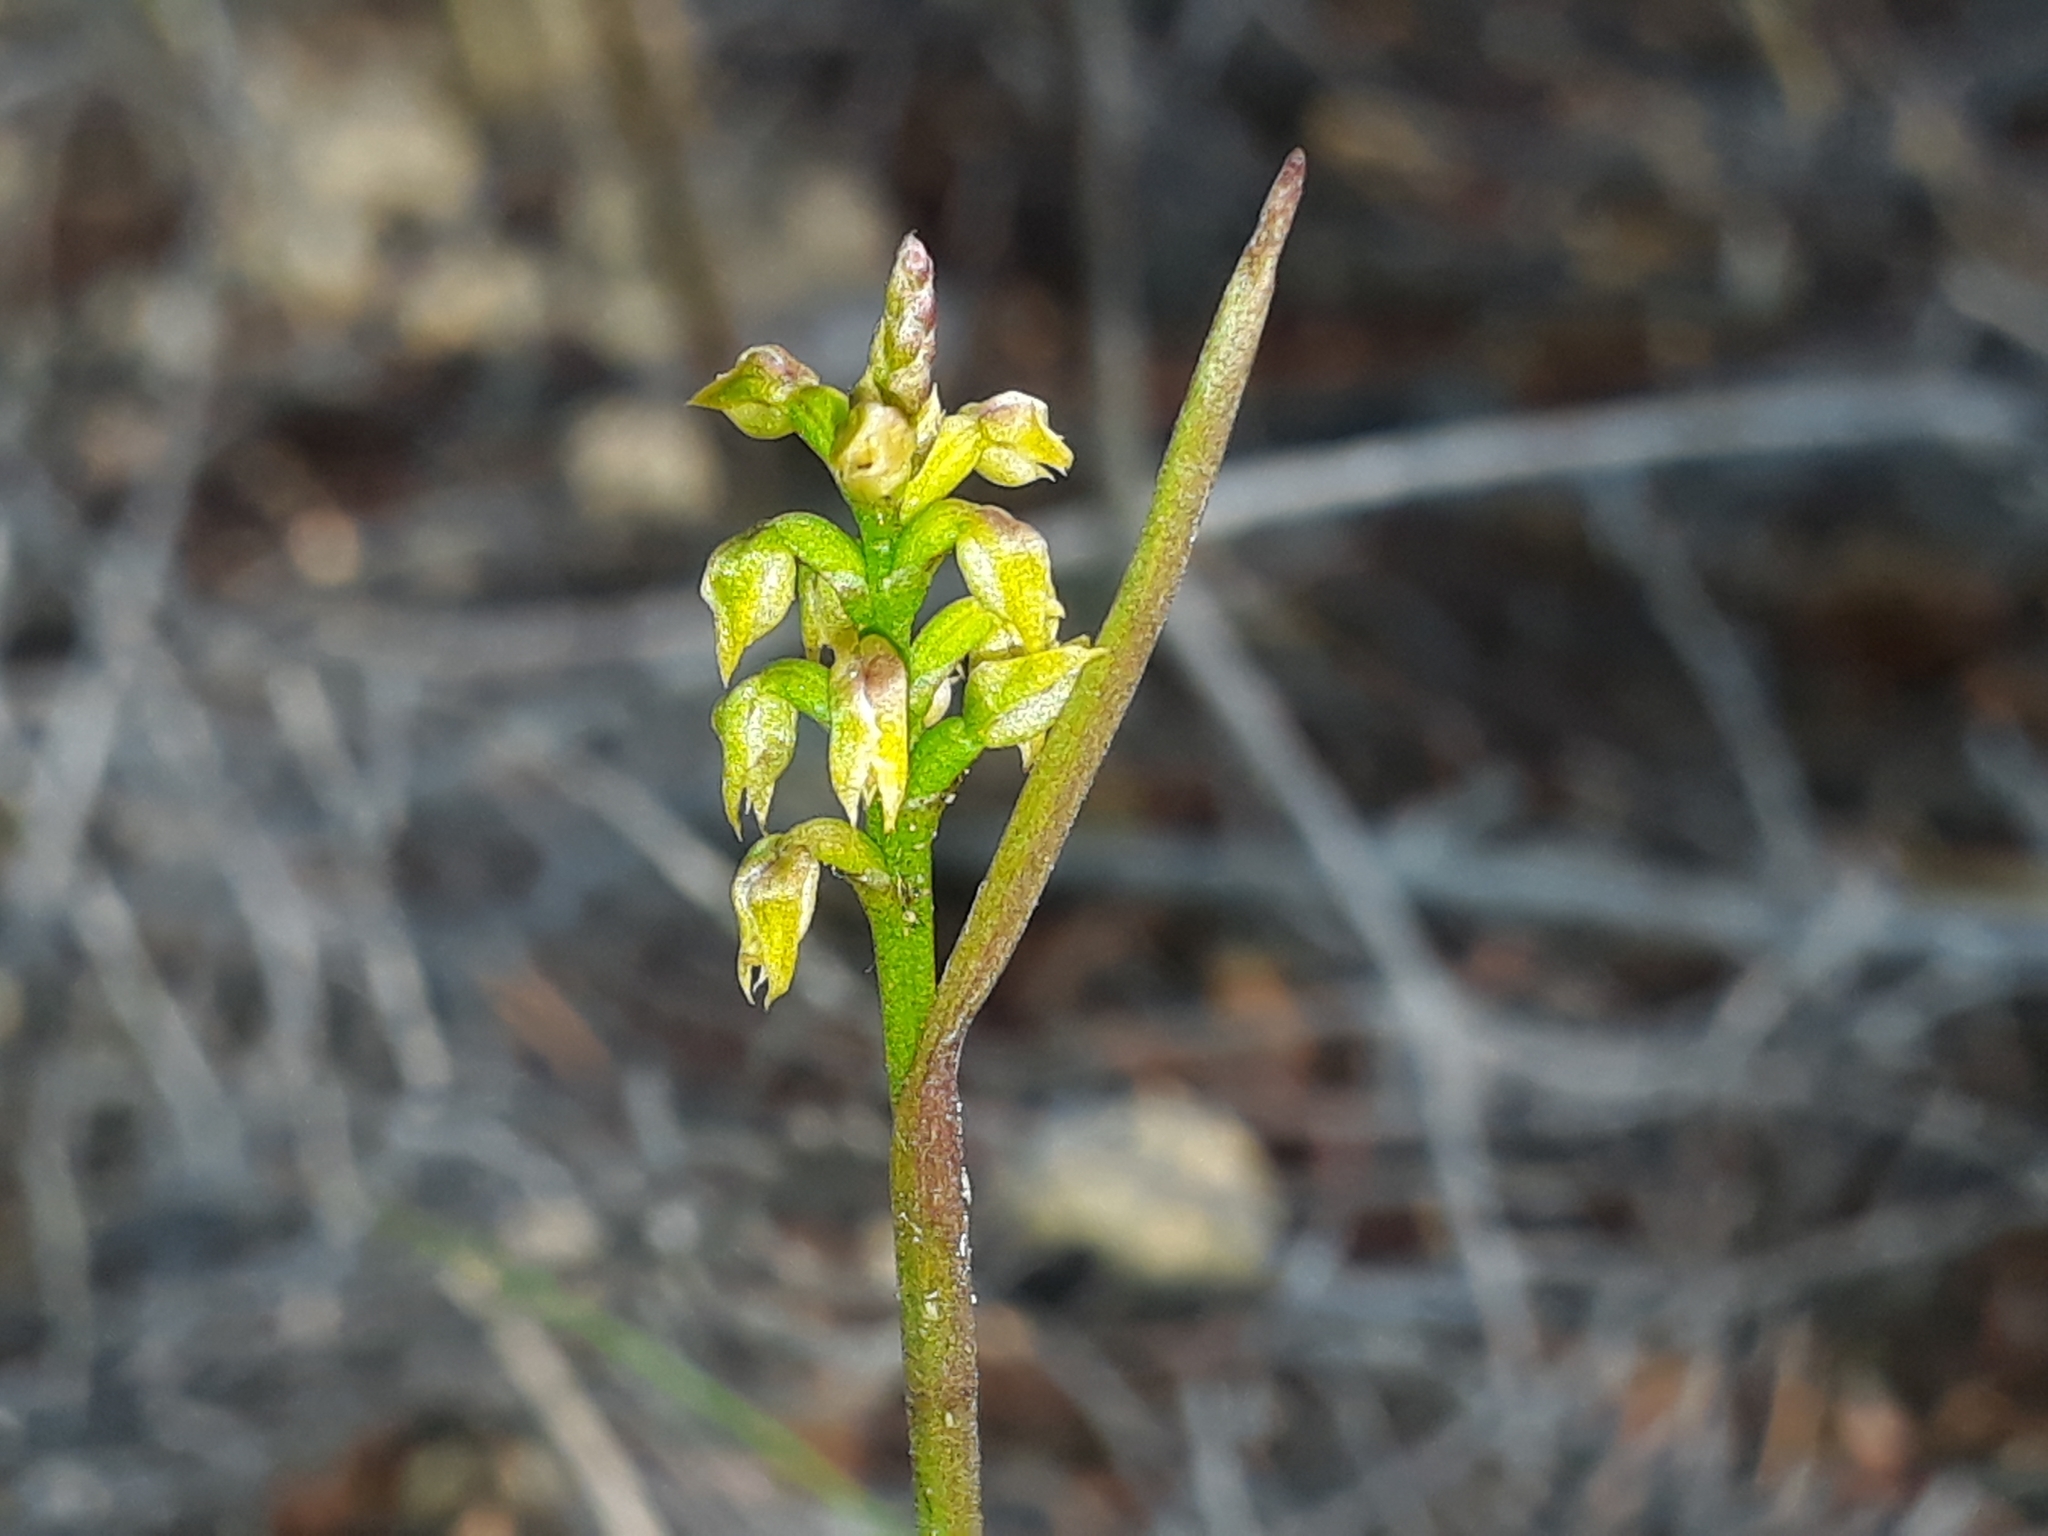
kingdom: Plantae
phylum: Tracheophyta
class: Liliopsida
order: Asparagales
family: Orchidaceae
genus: Genoplesium
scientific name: Genoplesium pumilum
